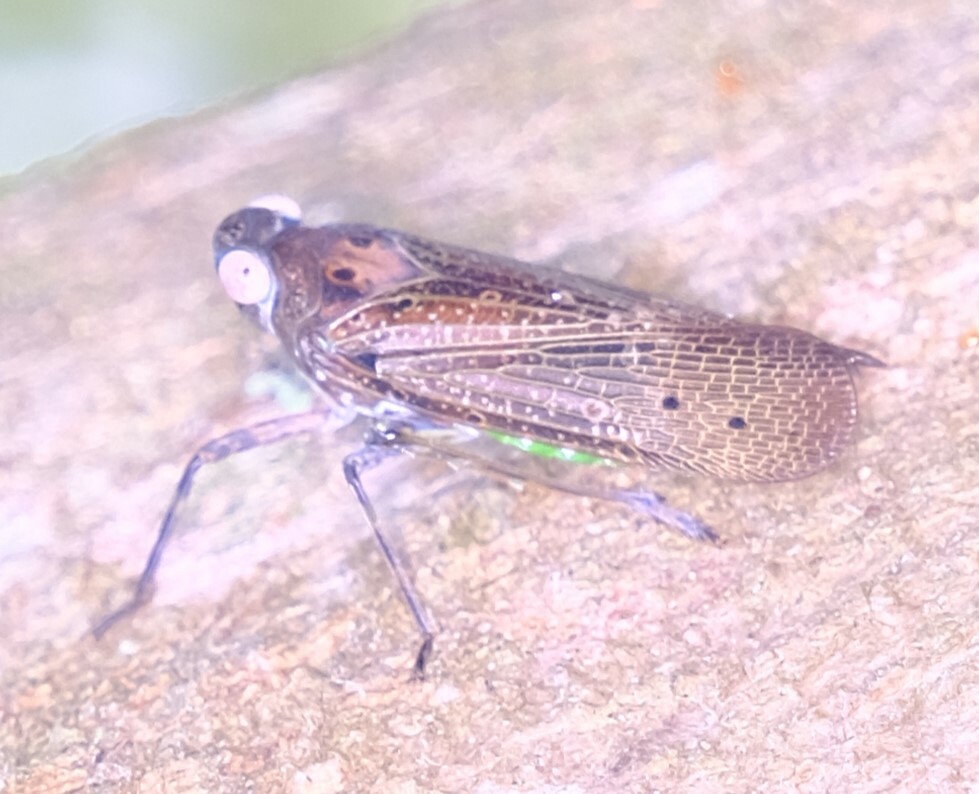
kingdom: Animalia
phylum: Arthropoda
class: Insecta
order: Hemiptera
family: Fulgoridae
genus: Desudaba
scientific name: Desudaba psittacus
